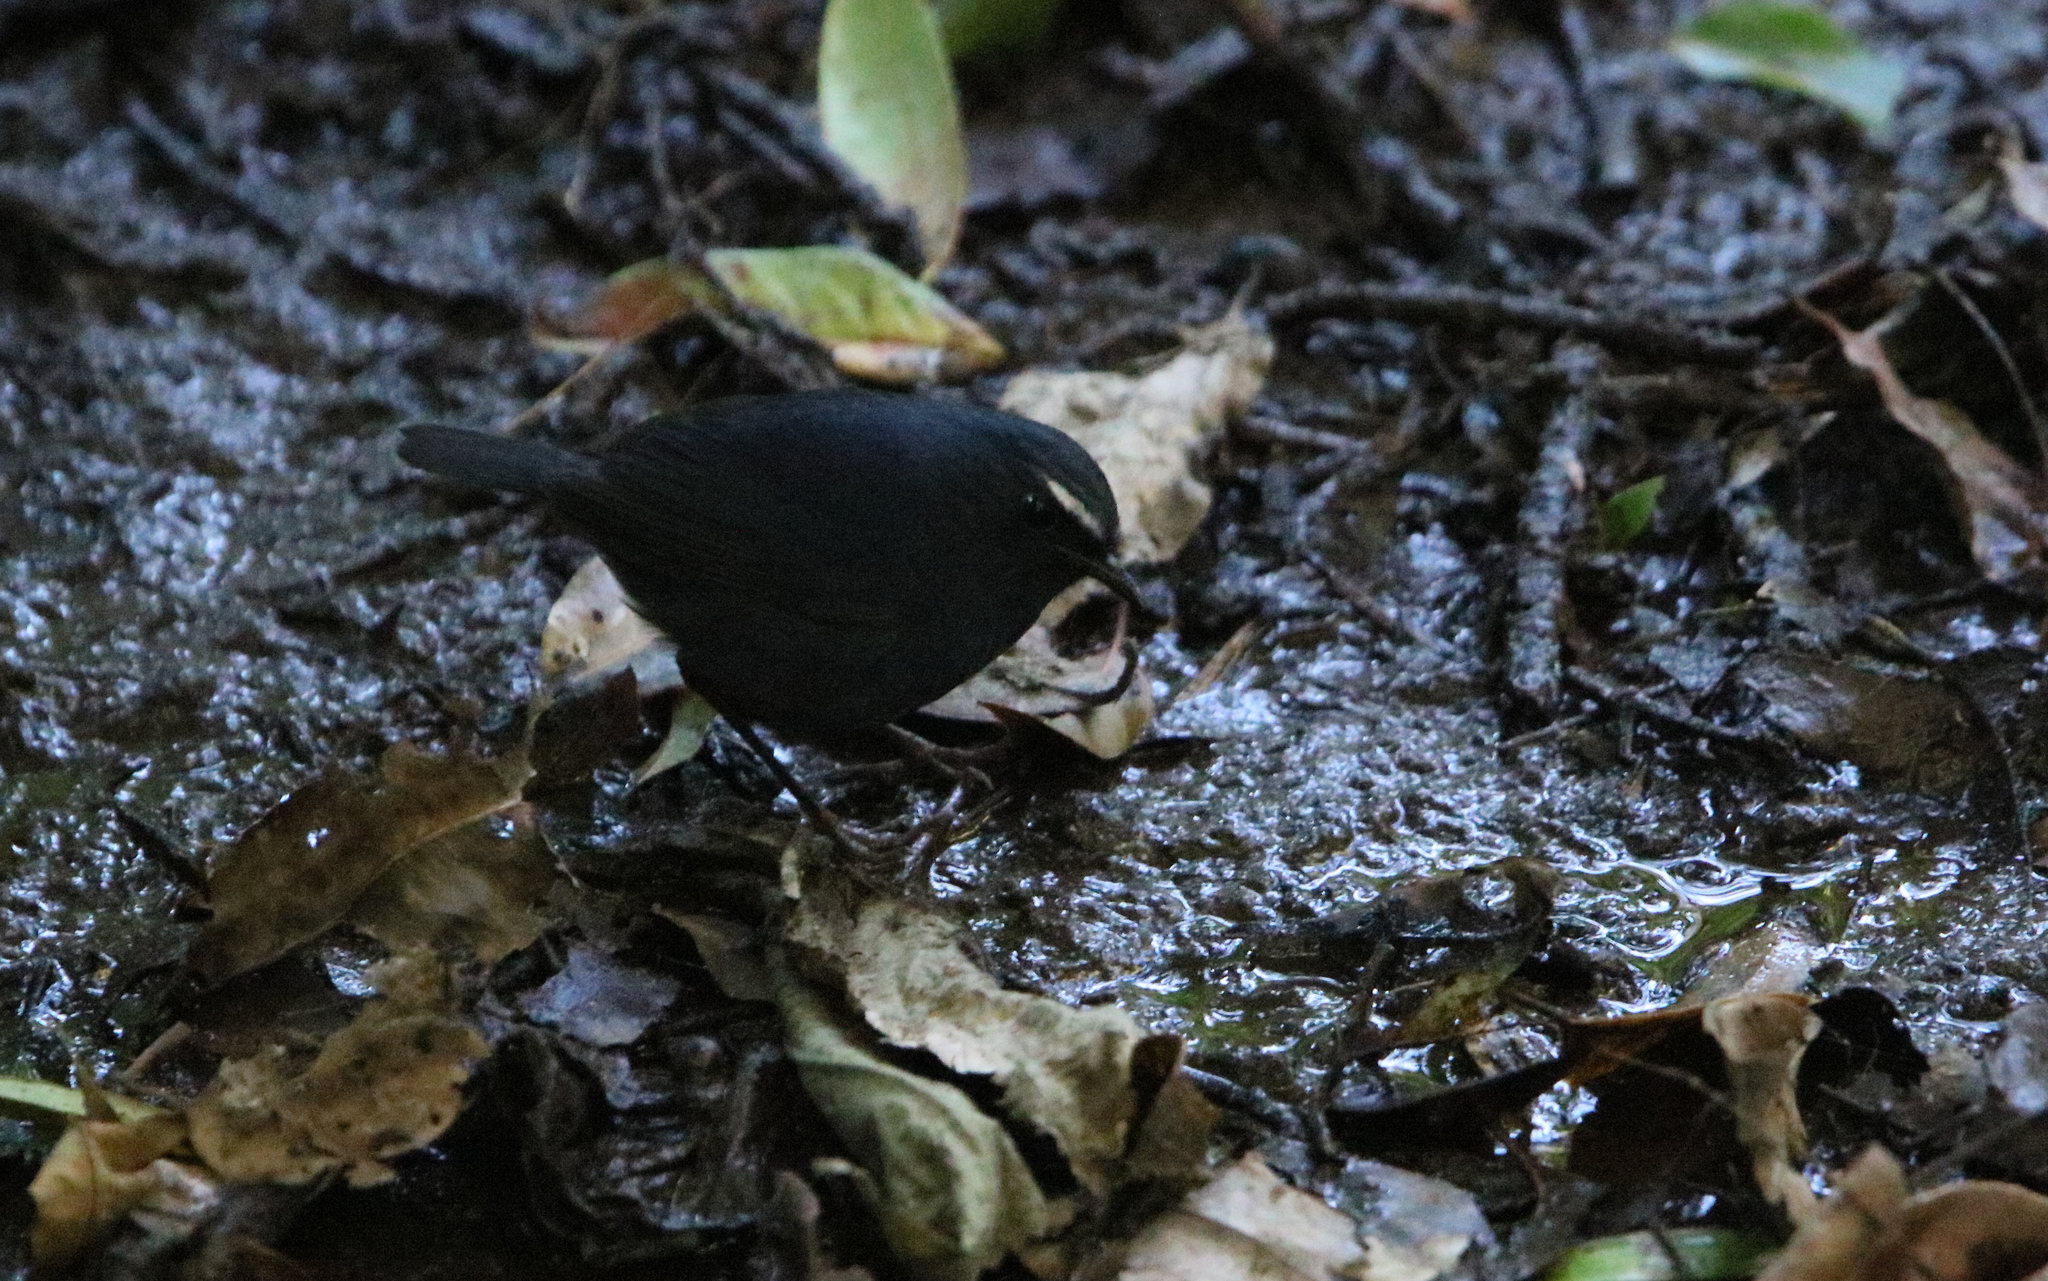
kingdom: Animalia
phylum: Chordata
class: Aves
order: Passeriformes
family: Muscicapidae
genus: Brachypteryx
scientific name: Brachypteryx montana
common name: White-browed shortwing
